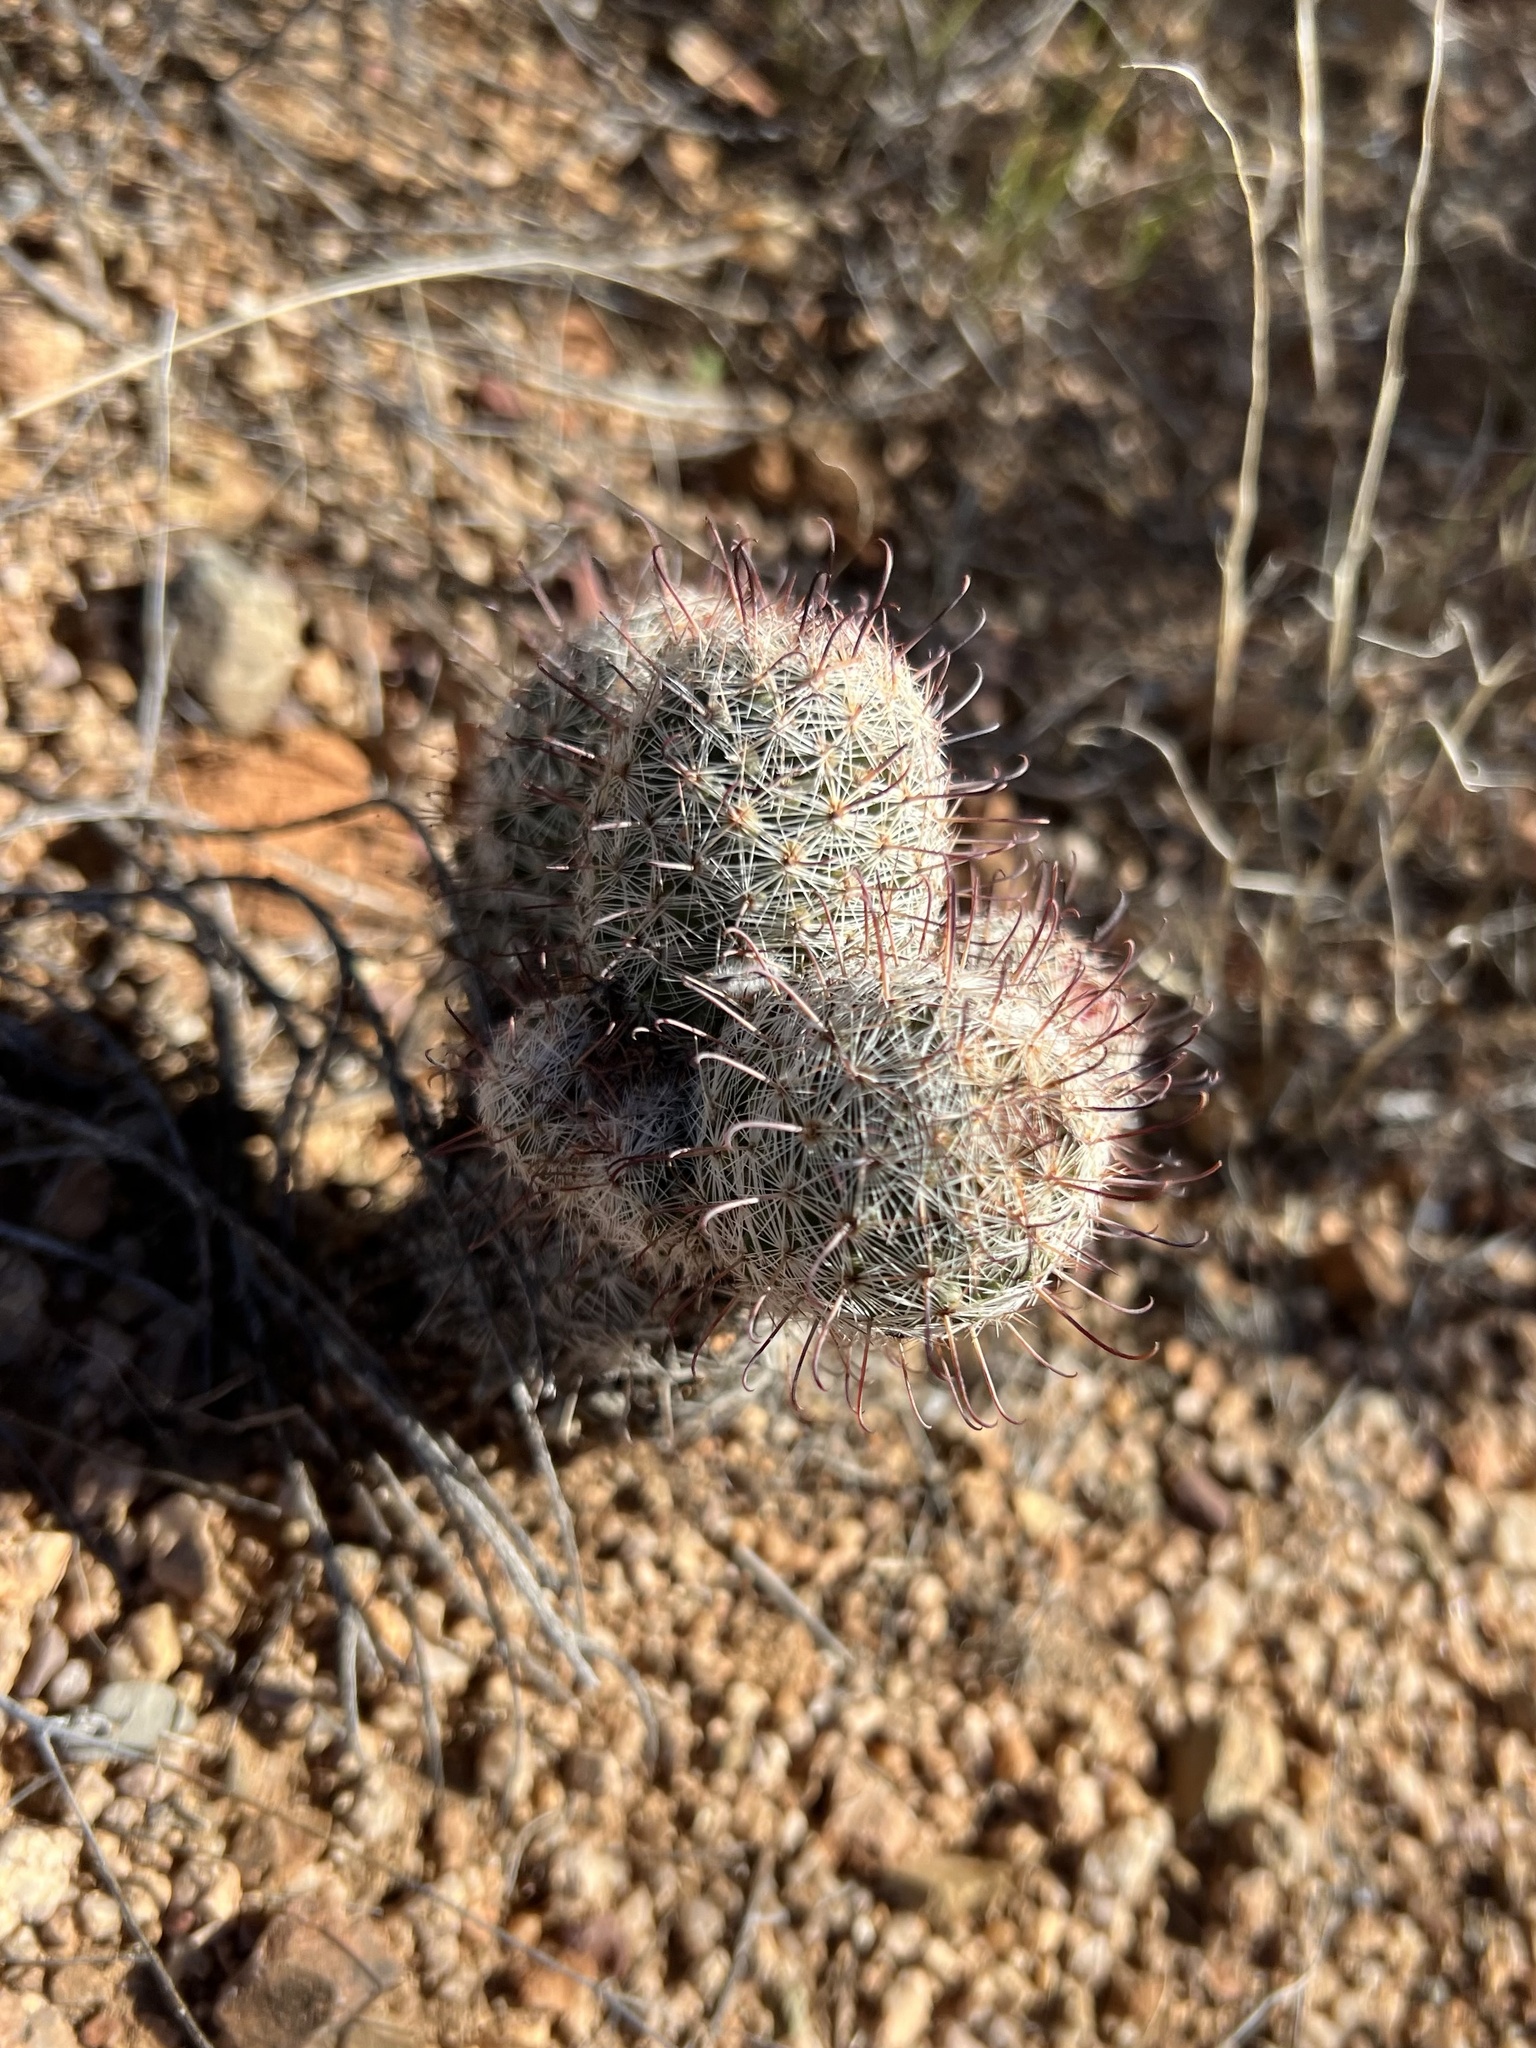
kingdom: Plantae
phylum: Tracheophyta
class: Magnoliopsida
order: Caryophyllales
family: Cactaceae
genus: Cochemiea
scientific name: Cochemiea grahamii
